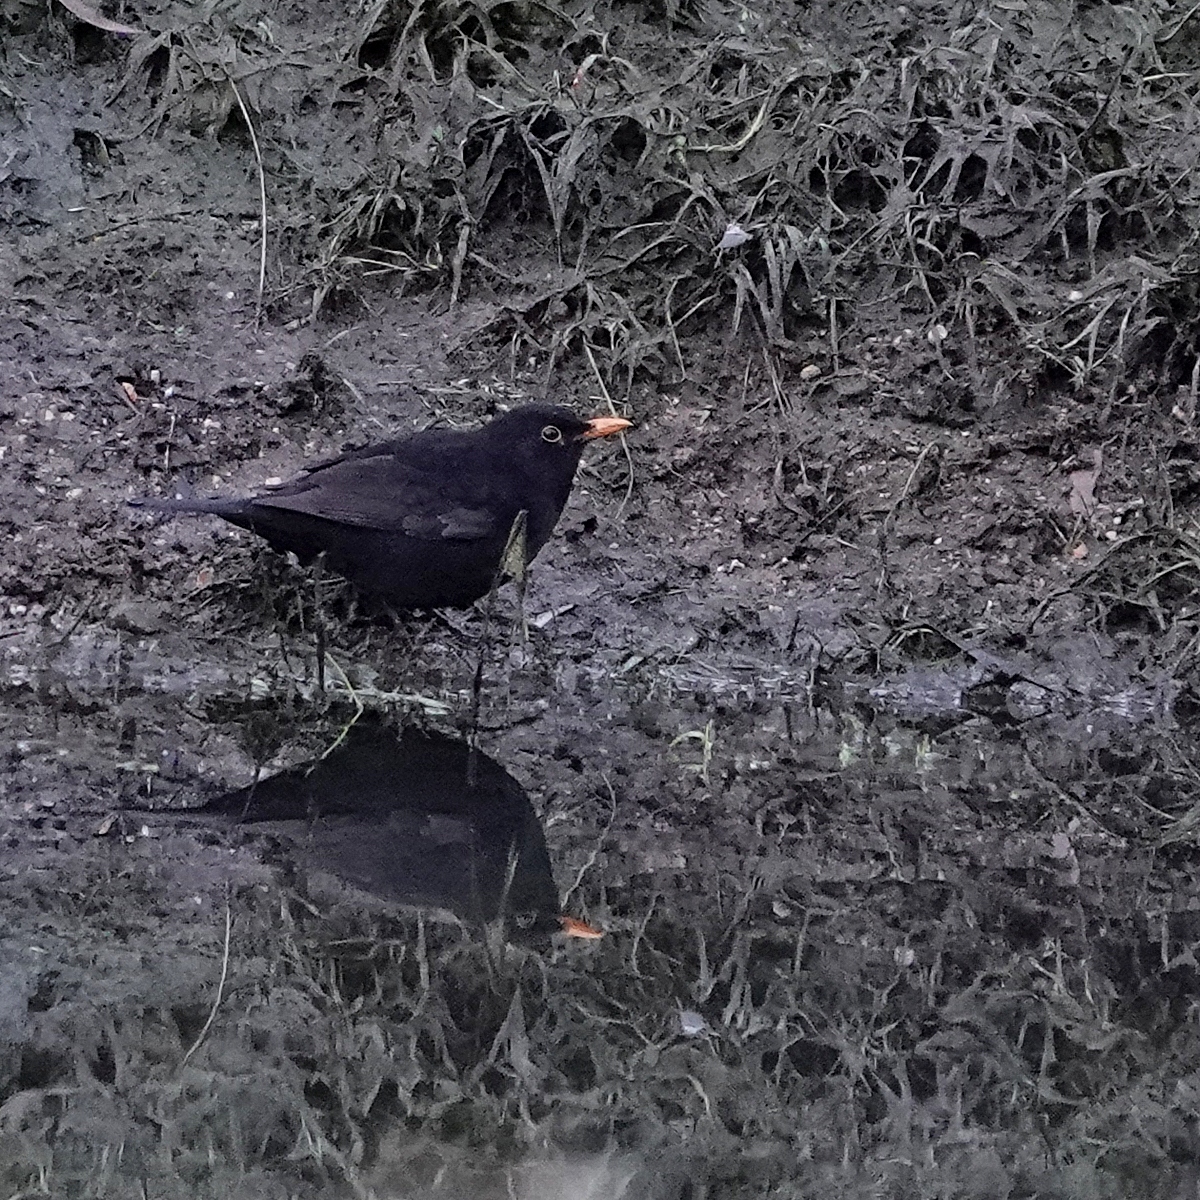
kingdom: Animalia
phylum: Chordata
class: Aves
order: Passeriformes
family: Turdidae
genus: Turdus
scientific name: Turdus merula
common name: Common blackbird
